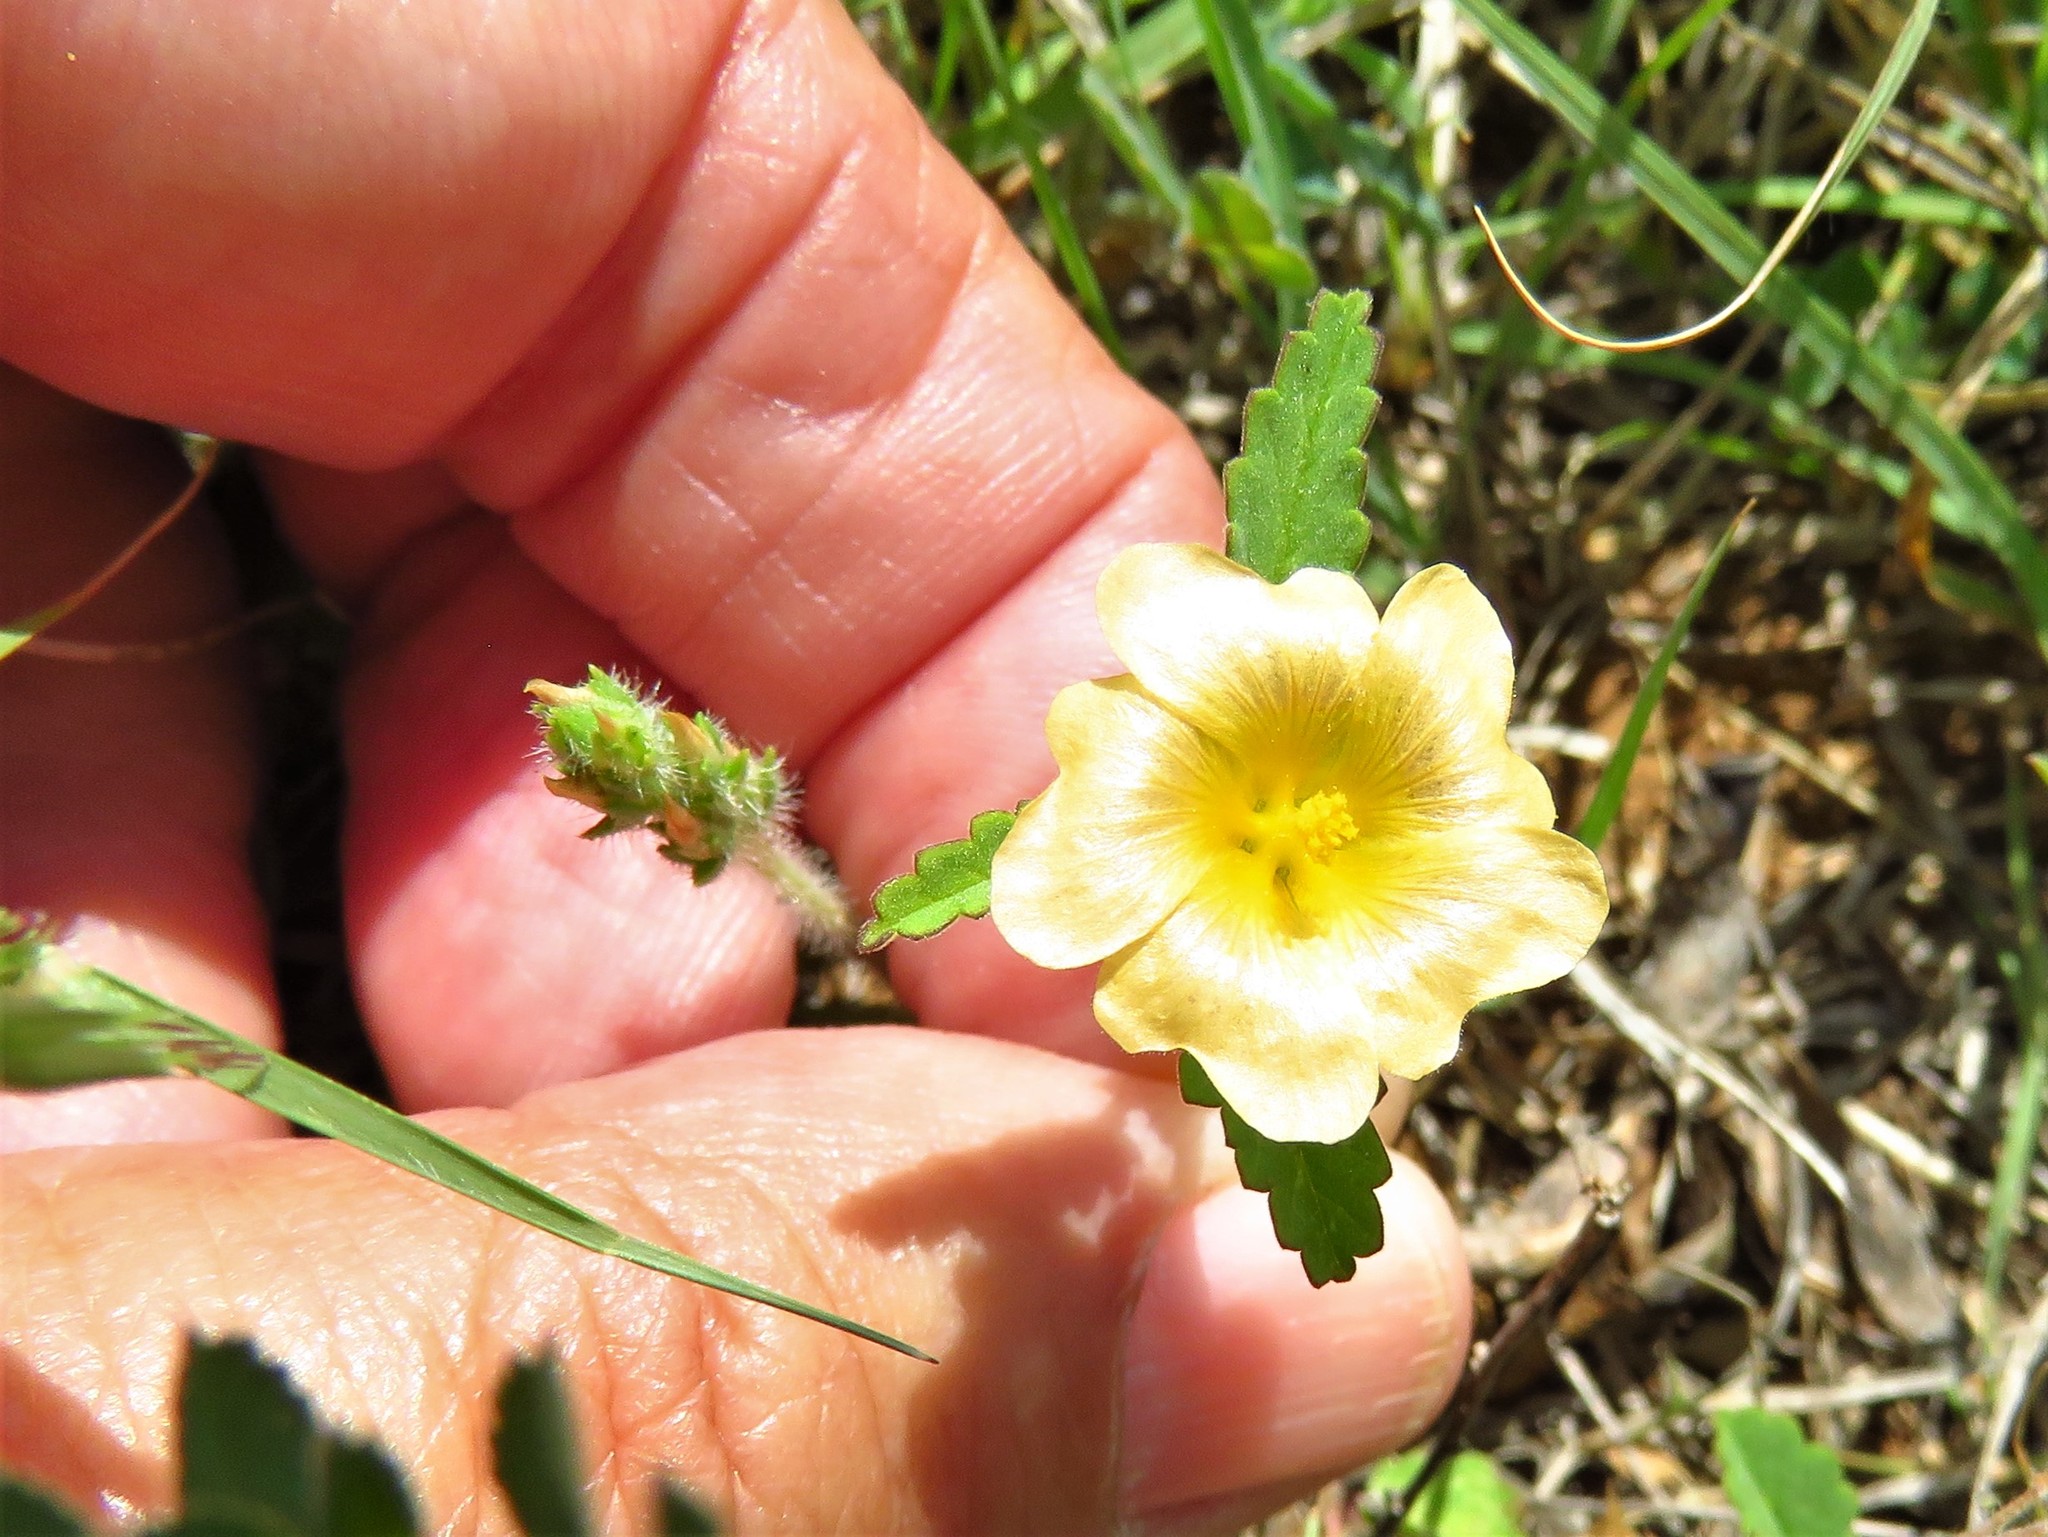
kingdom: Plantae
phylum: Tracheophyta
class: Magnoliopsida
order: Malvales
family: Malvaceae
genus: Sida
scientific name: Sida abutilifolia
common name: Spreading fanpetals
